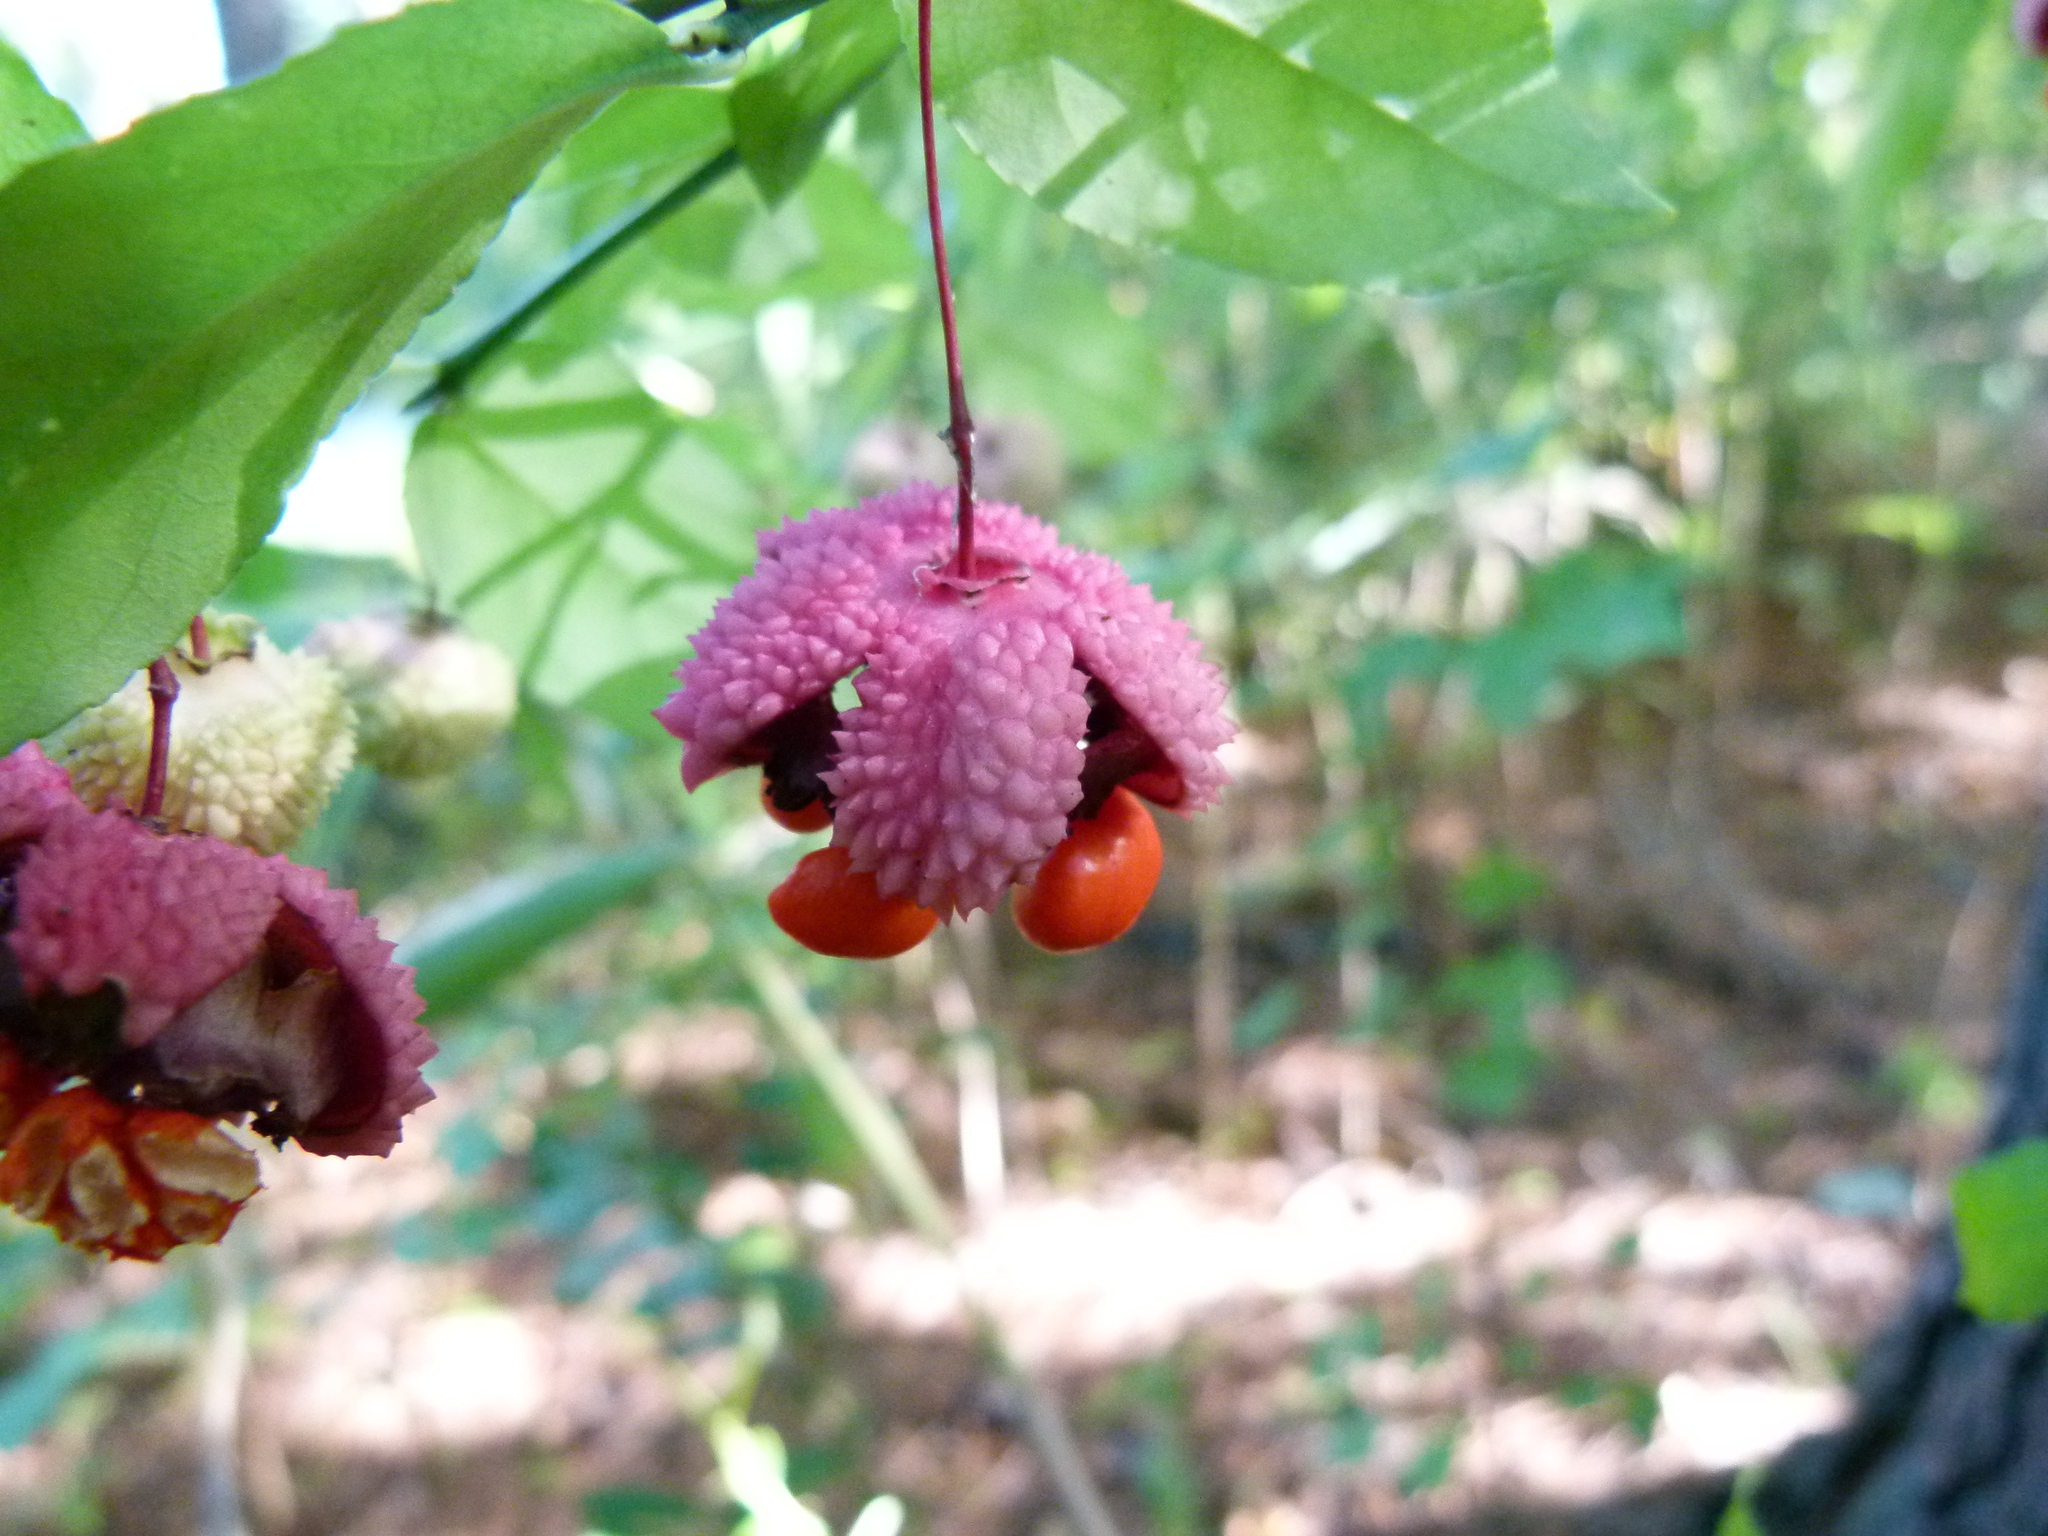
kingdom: Plantae
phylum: Tracheophyta
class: Magnoliopsida
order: Celastrales
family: Celastraceae
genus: Euonymus
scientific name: Euonymus americanus
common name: Bursting-heart
